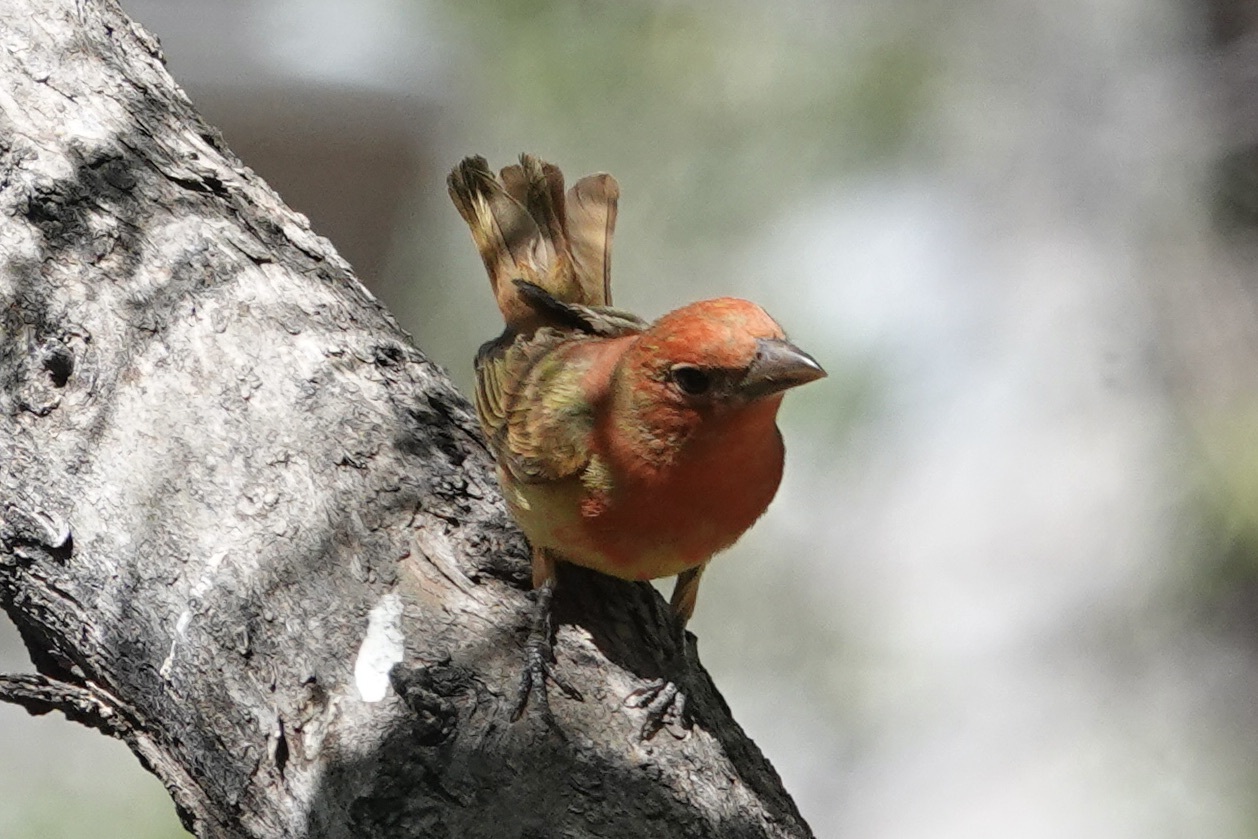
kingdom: Animalia
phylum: Chordata
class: Aves
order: Passeriformes
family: Cardinalidae
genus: Piranga
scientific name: Piranga rubra
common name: Summer tanager
